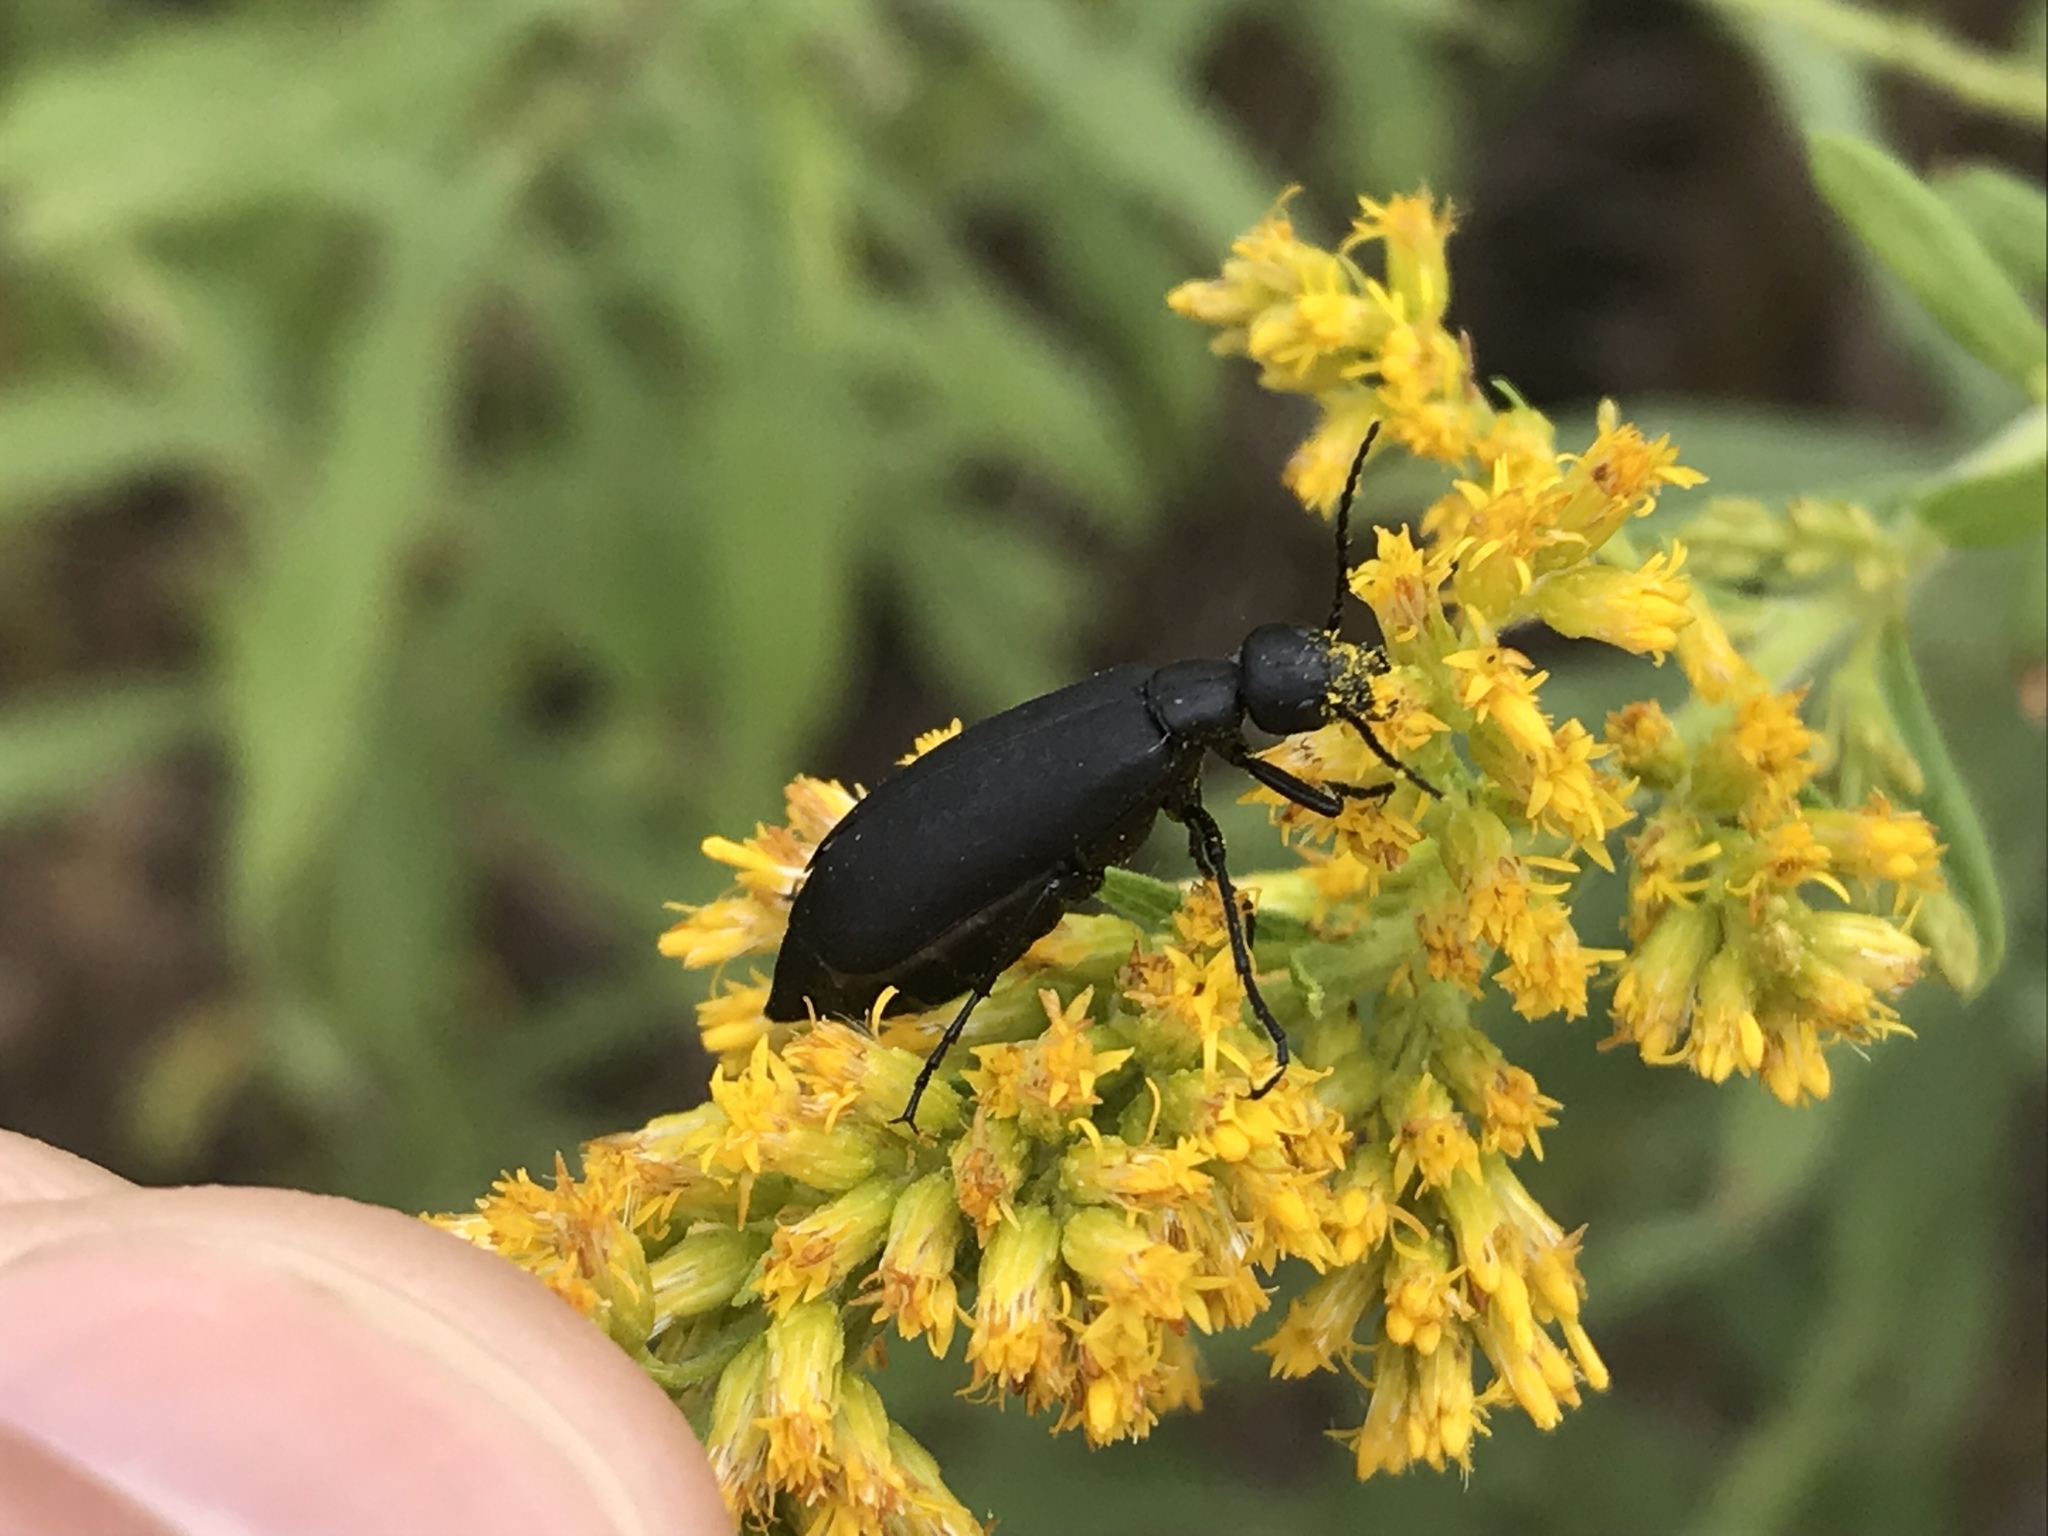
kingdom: Animalia
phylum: Arthropoda
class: Insecta
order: Coleoptera
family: Meloidae
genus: Epicauta
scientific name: Epicauta pensylvanica
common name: Black blister beetle
